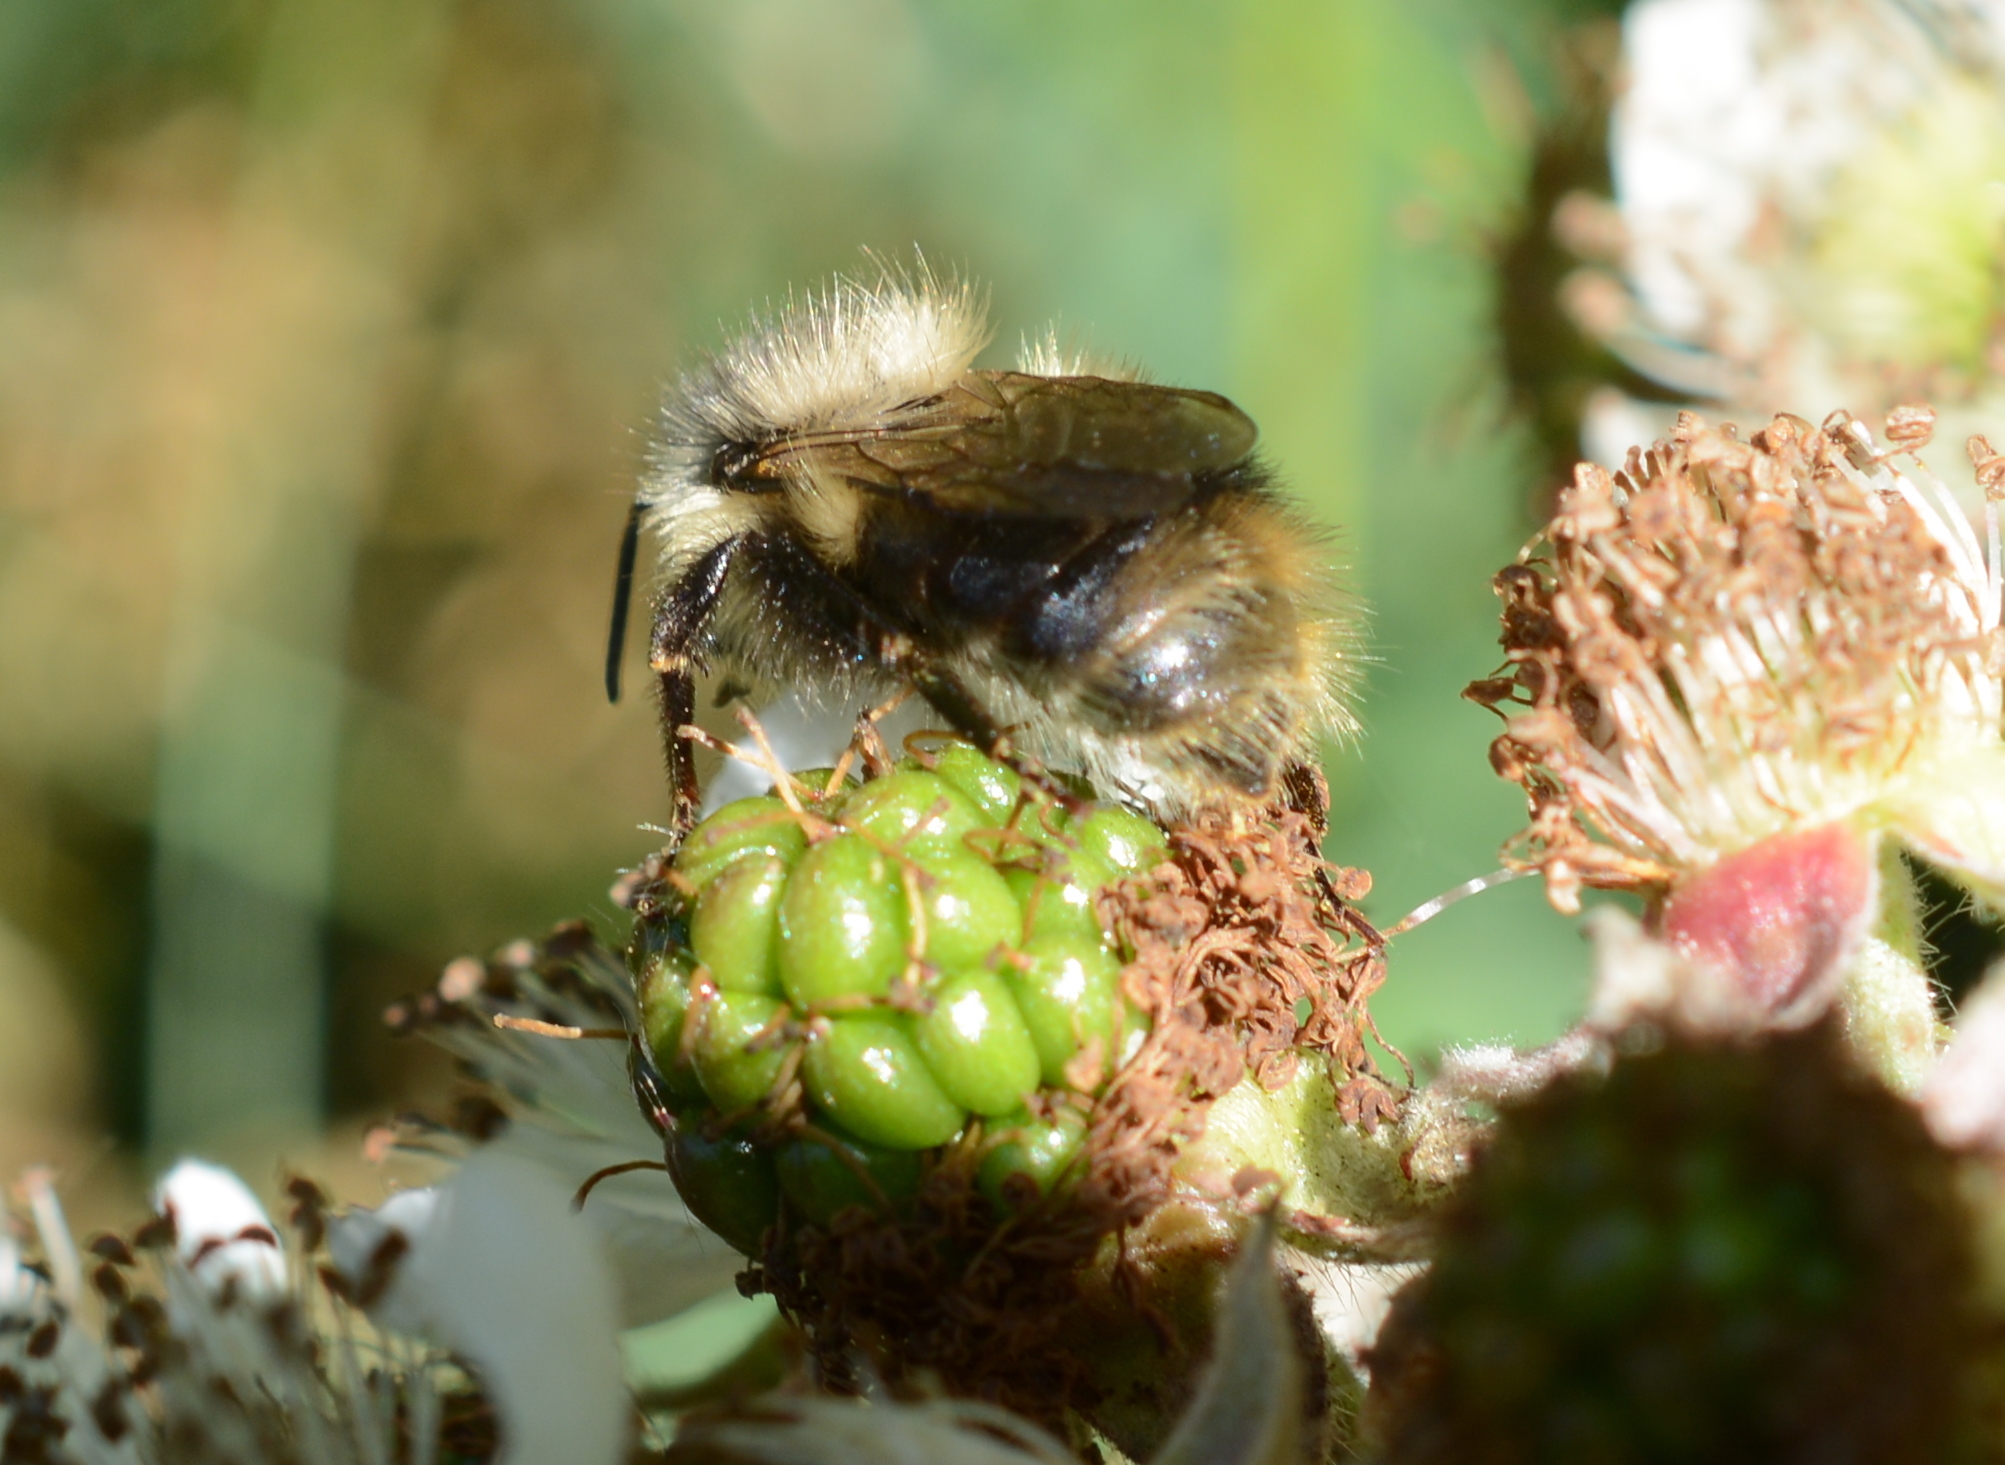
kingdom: Animalia
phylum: Arthropoda
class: Insecta
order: Hymenoptera
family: Apidae
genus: Bombus
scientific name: Bombus mixtus
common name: Fuzzy-horned bumble bee
